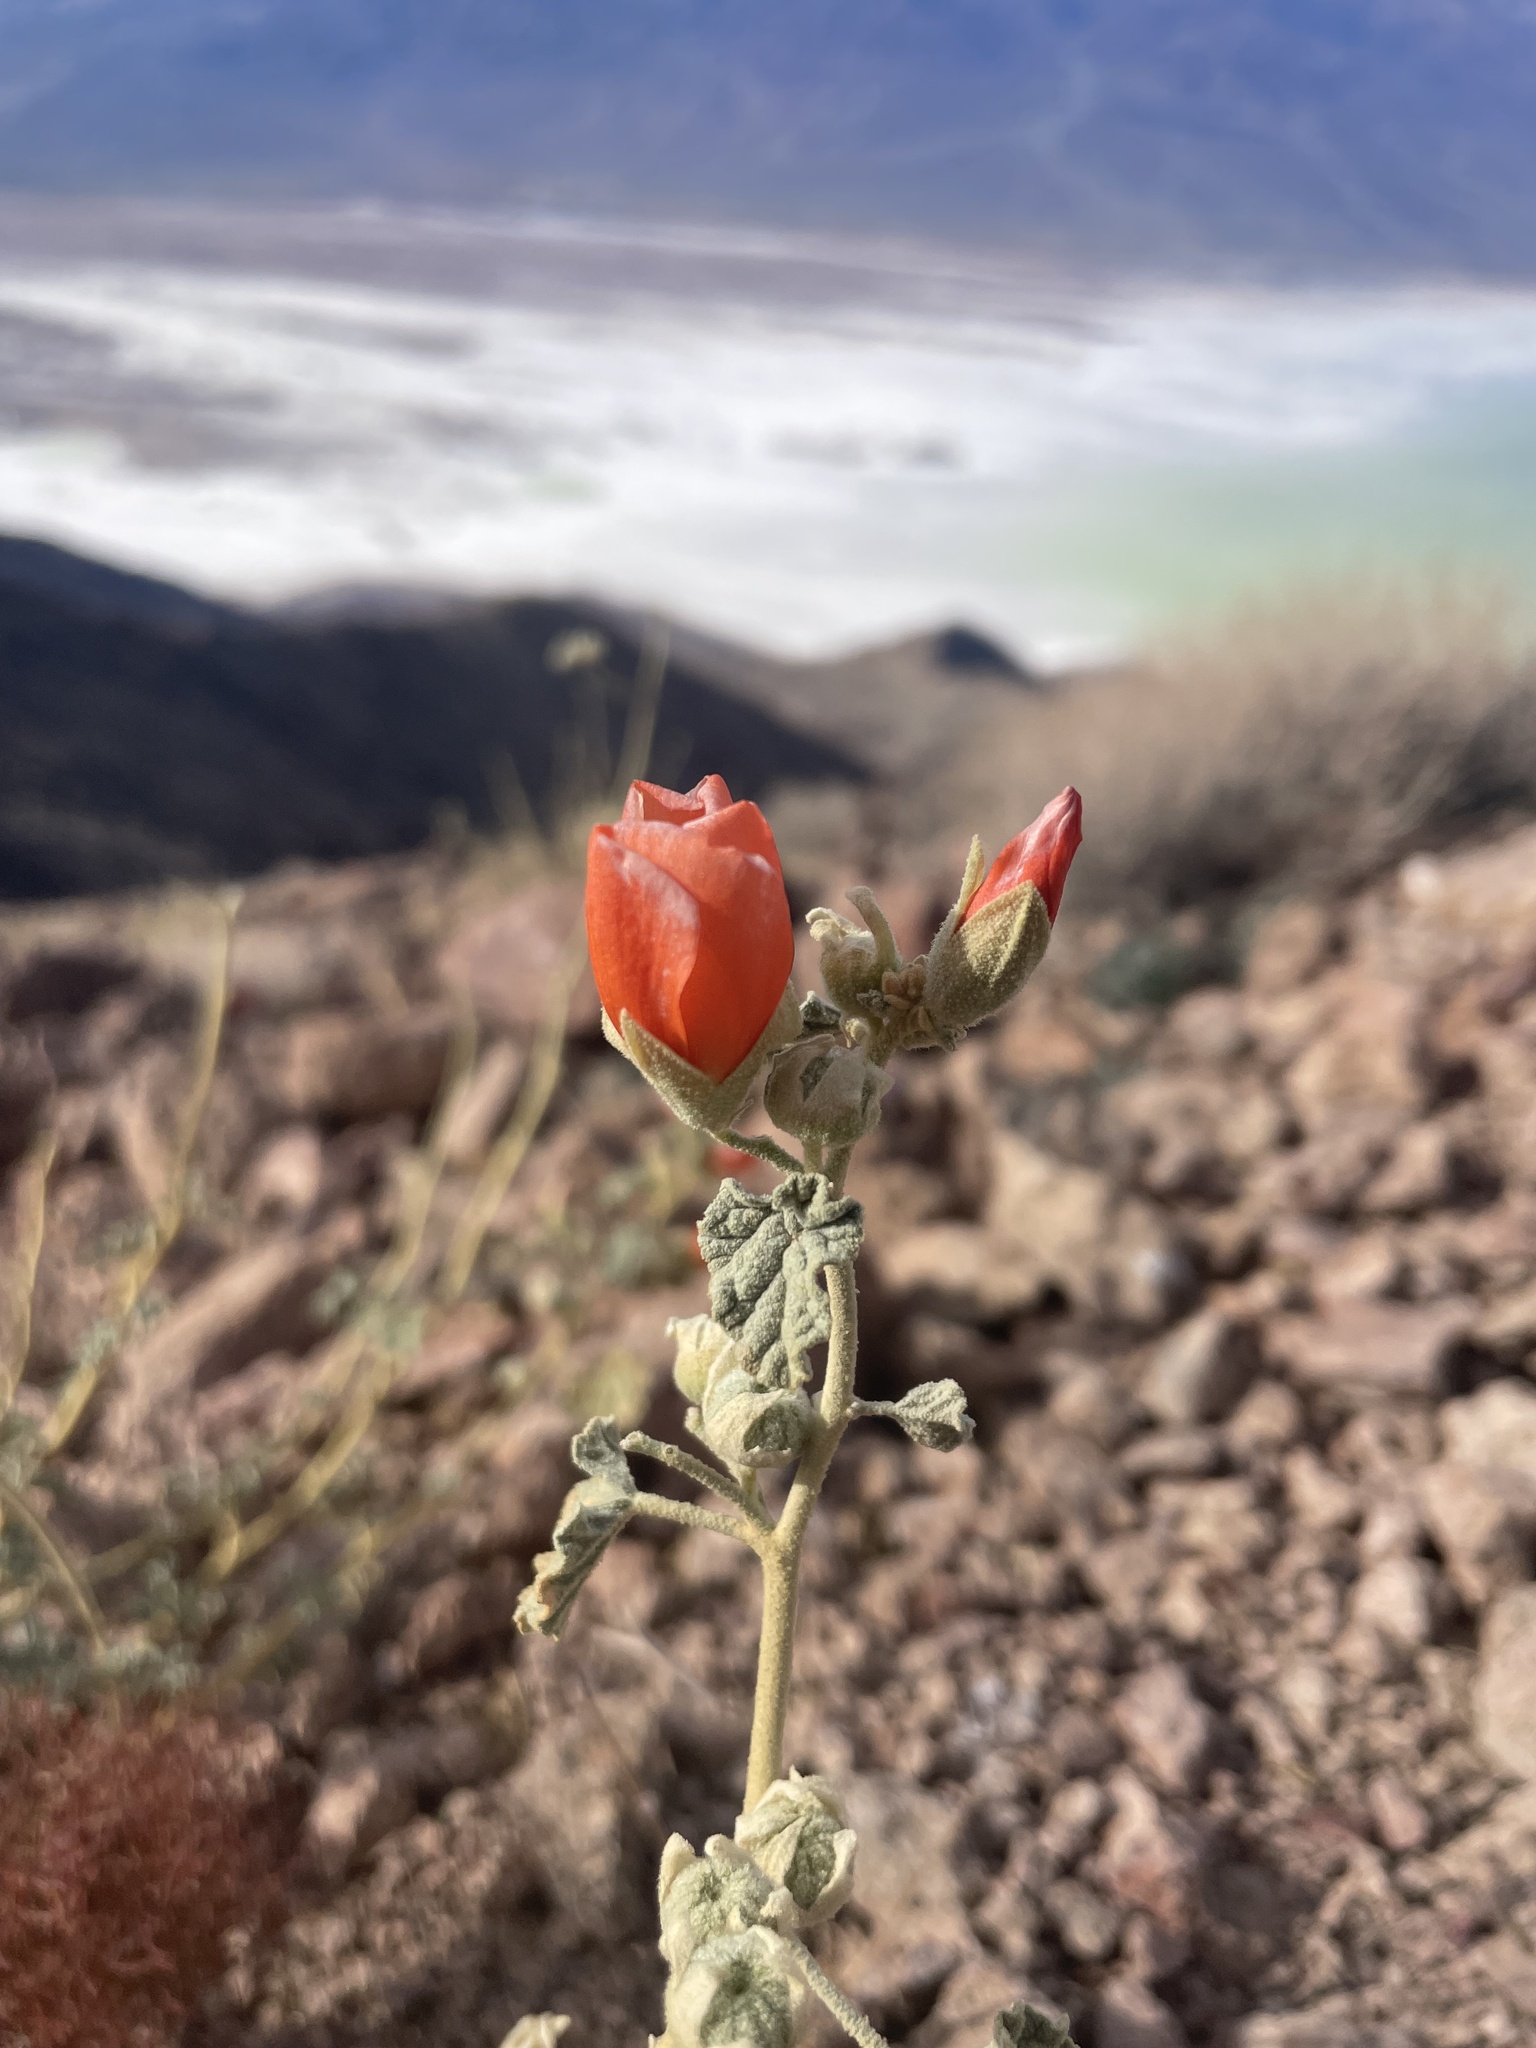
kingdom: Plantae
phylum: Tracheophyta
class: Magnoliopsida
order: Malvales
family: Malvaceae
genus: Sphaeralcea
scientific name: Sphaeralcea ambigua
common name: Apricot globe-mallow
